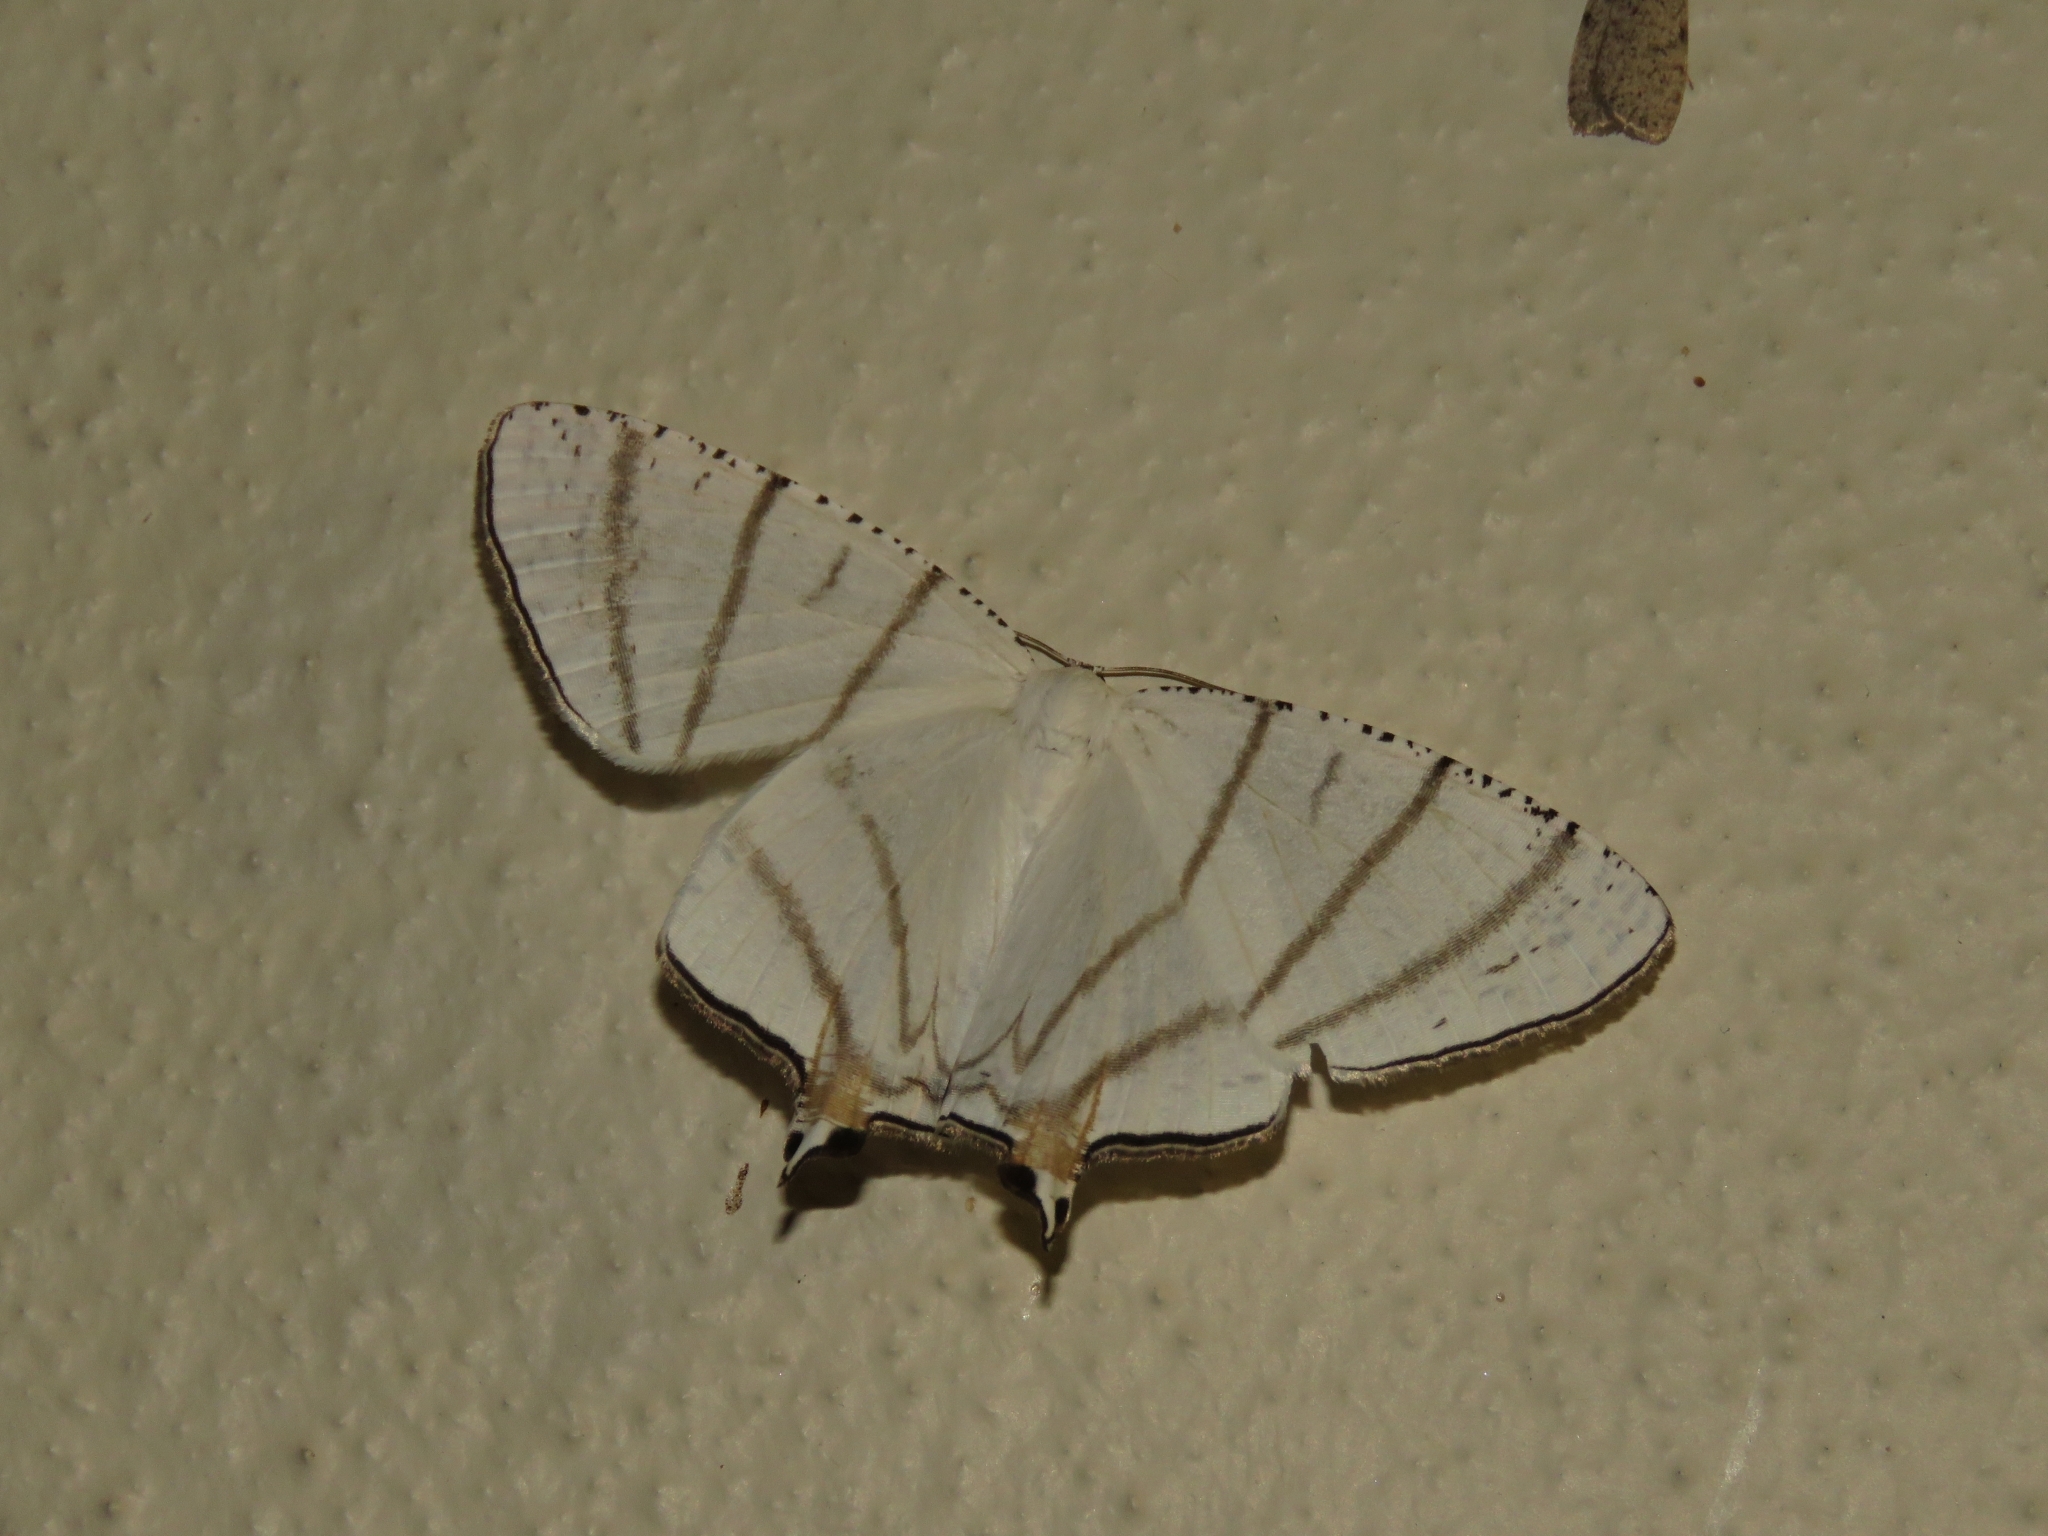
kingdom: Animalia
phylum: Arthropoda
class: Insecta
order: Lepidoptera
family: Uraniidae
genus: Urapteroides
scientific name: Urapteroides recurvata
